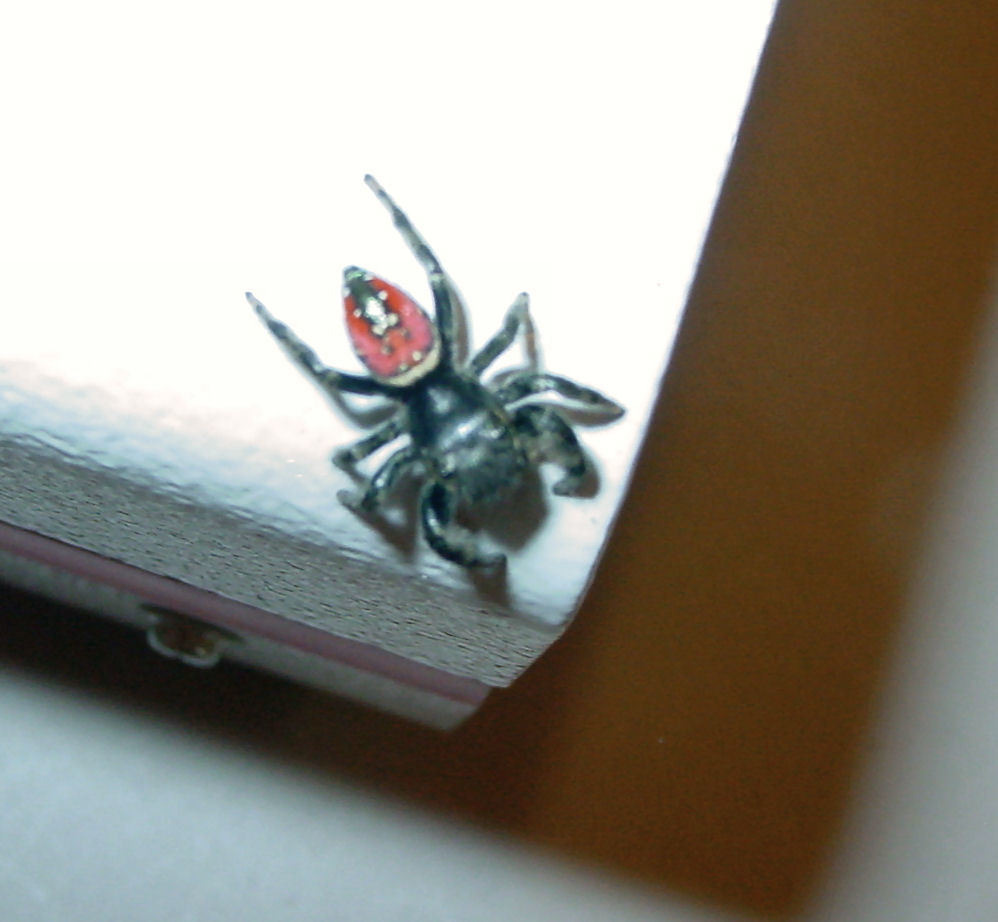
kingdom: Animalia
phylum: Arthropoda
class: Arachnida
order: Araneae
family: Salticidae
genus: Phidippus
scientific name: Phidippus carneus
